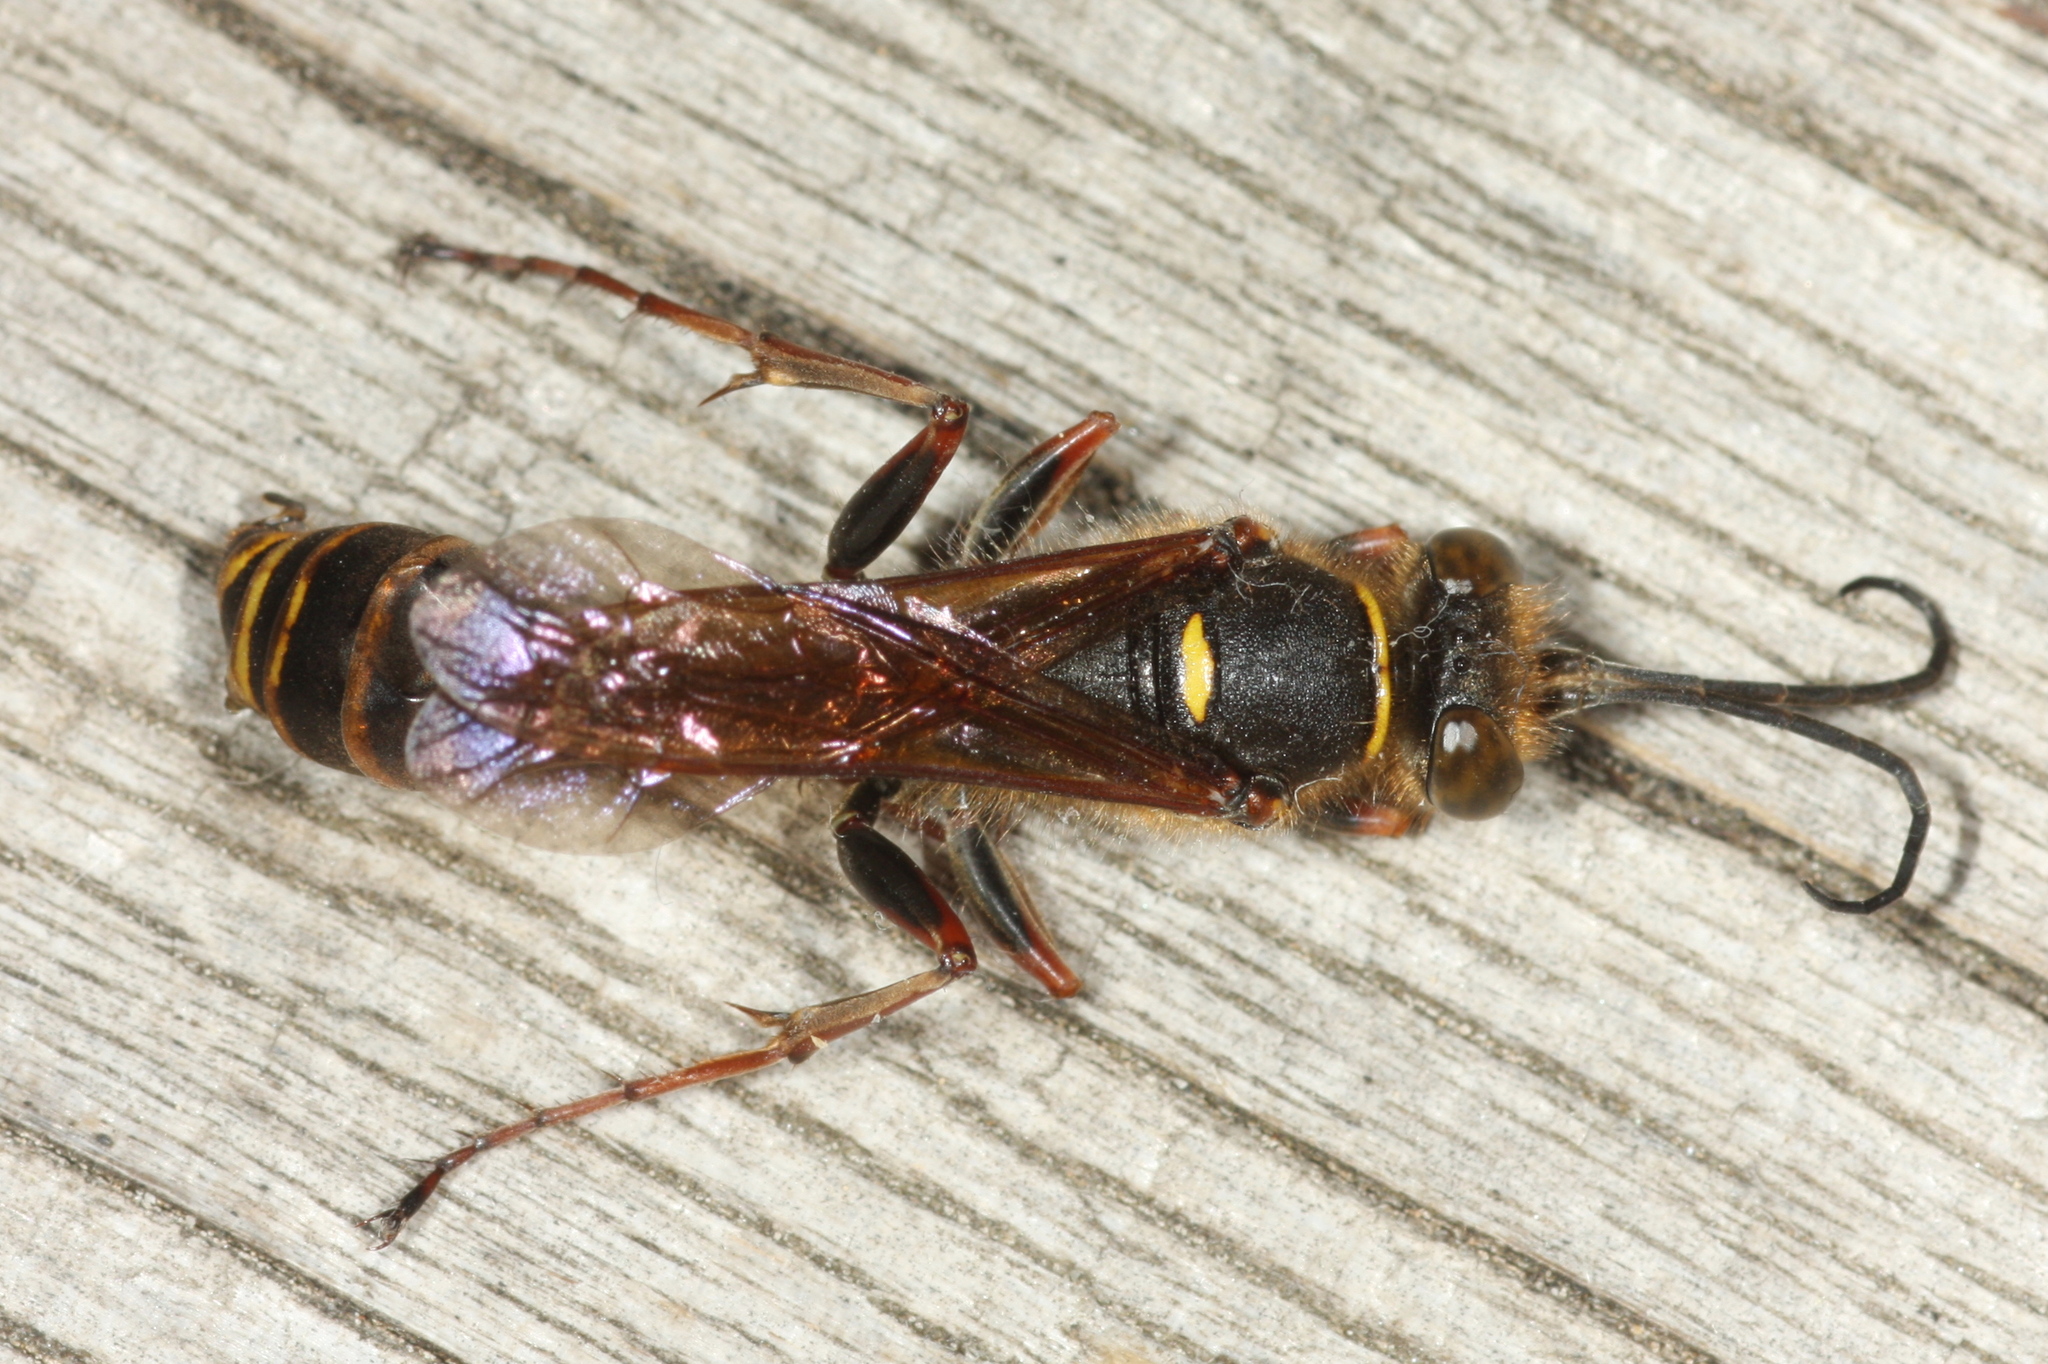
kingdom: Animalia
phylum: Arthropoda
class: Insecta
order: Hymenoptera
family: Sphecidae
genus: Sceliphron
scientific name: Sceliphron curvatum
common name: Pèlopèe
